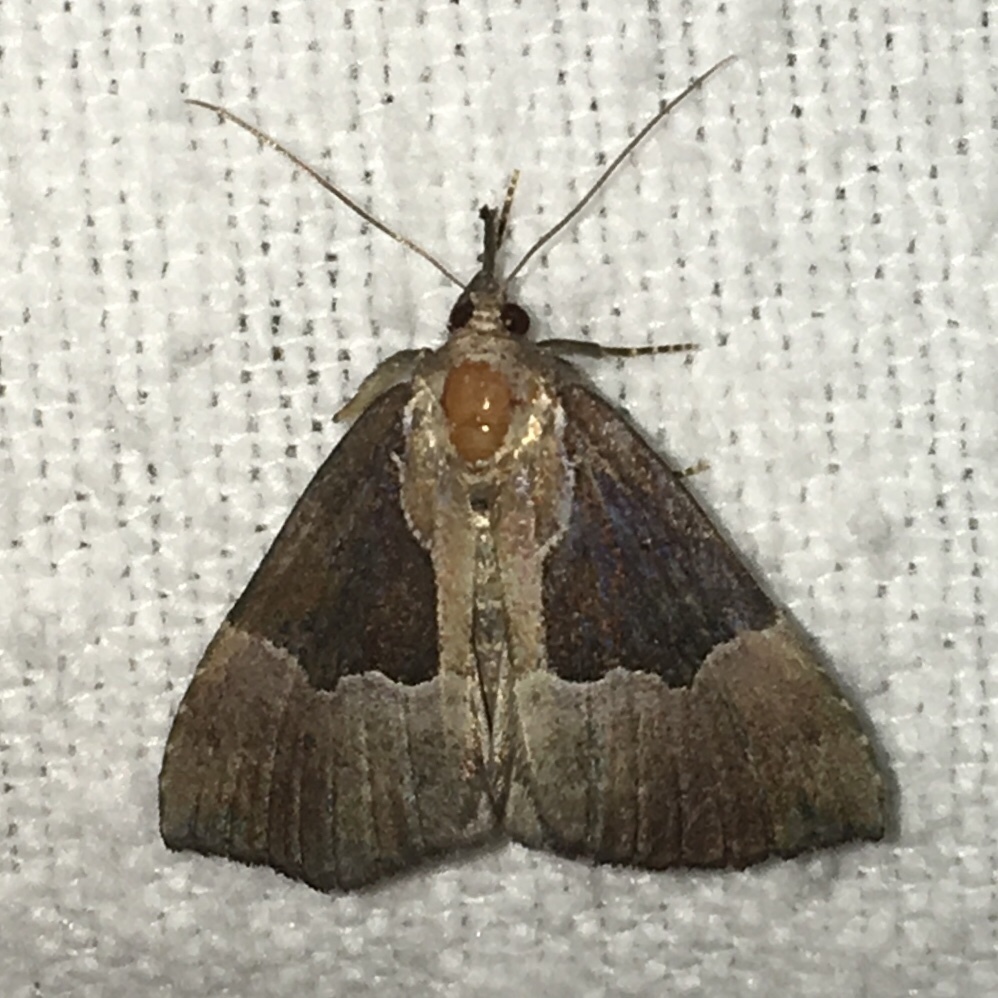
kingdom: Animalia
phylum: Arthropoda
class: Insecta
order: Lepidoptera
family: Erebidae
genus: Hypena
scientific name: Hypena bijugalis
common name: Dimorphic bomolocha moth
